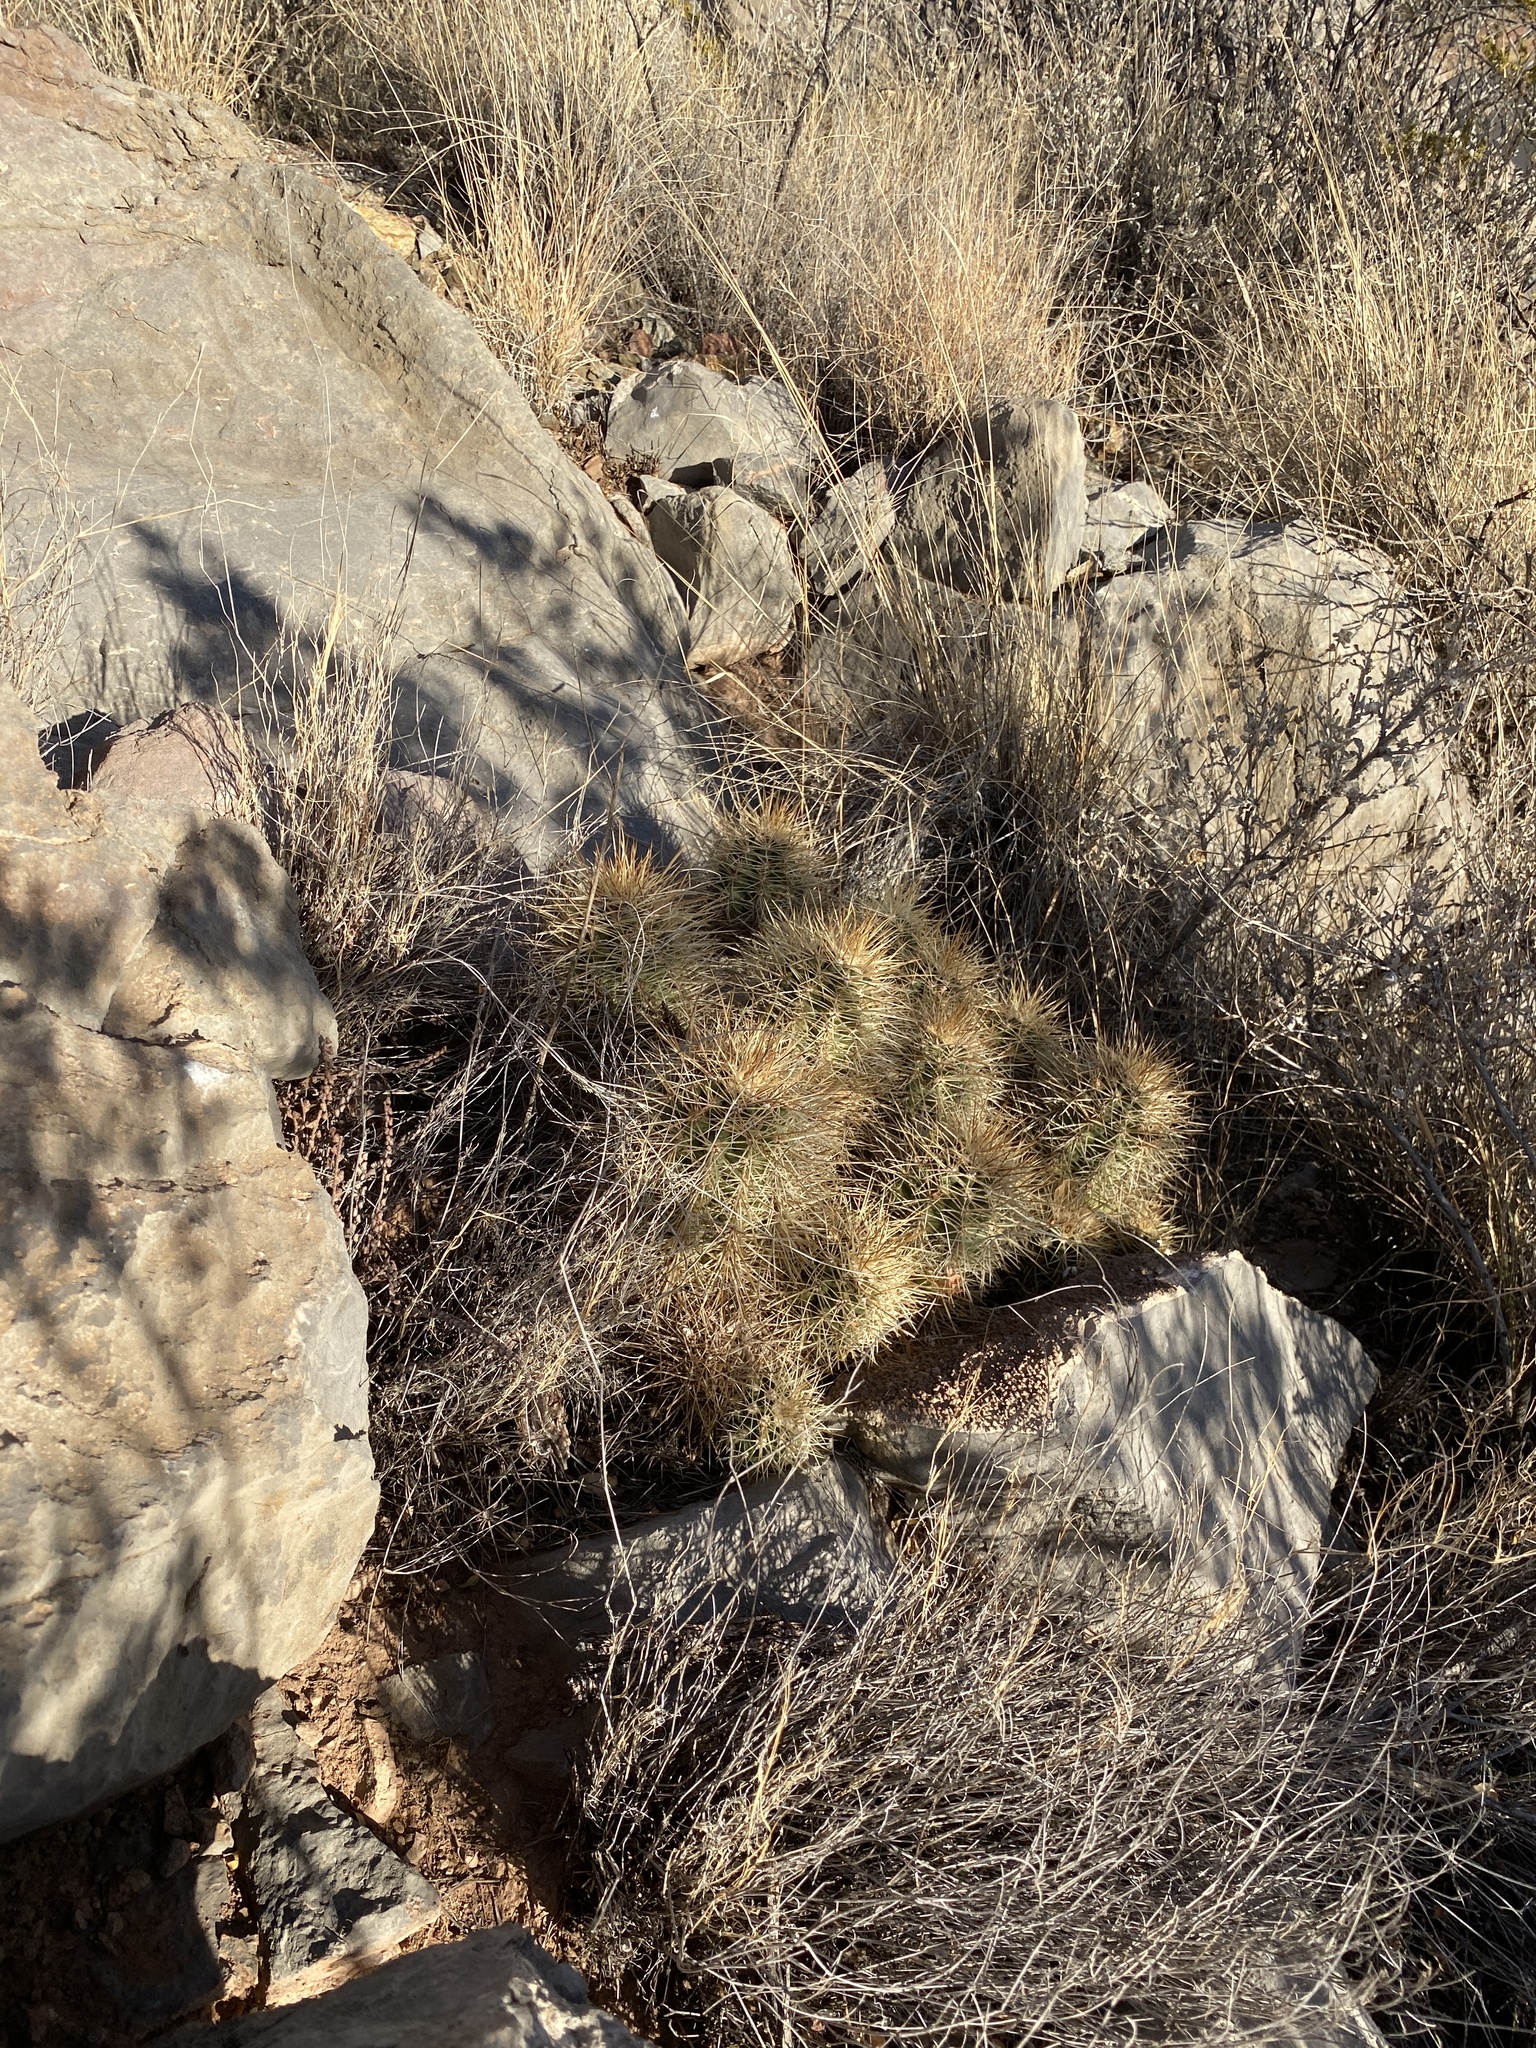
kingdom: Plantae
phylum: Tracheophyta
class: Magnoliopsida
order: Caryophyllales
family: Cactaceae
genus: Echinocereus
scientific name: Echinocereus coccineus
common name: Scarlet hedgehog cactus
